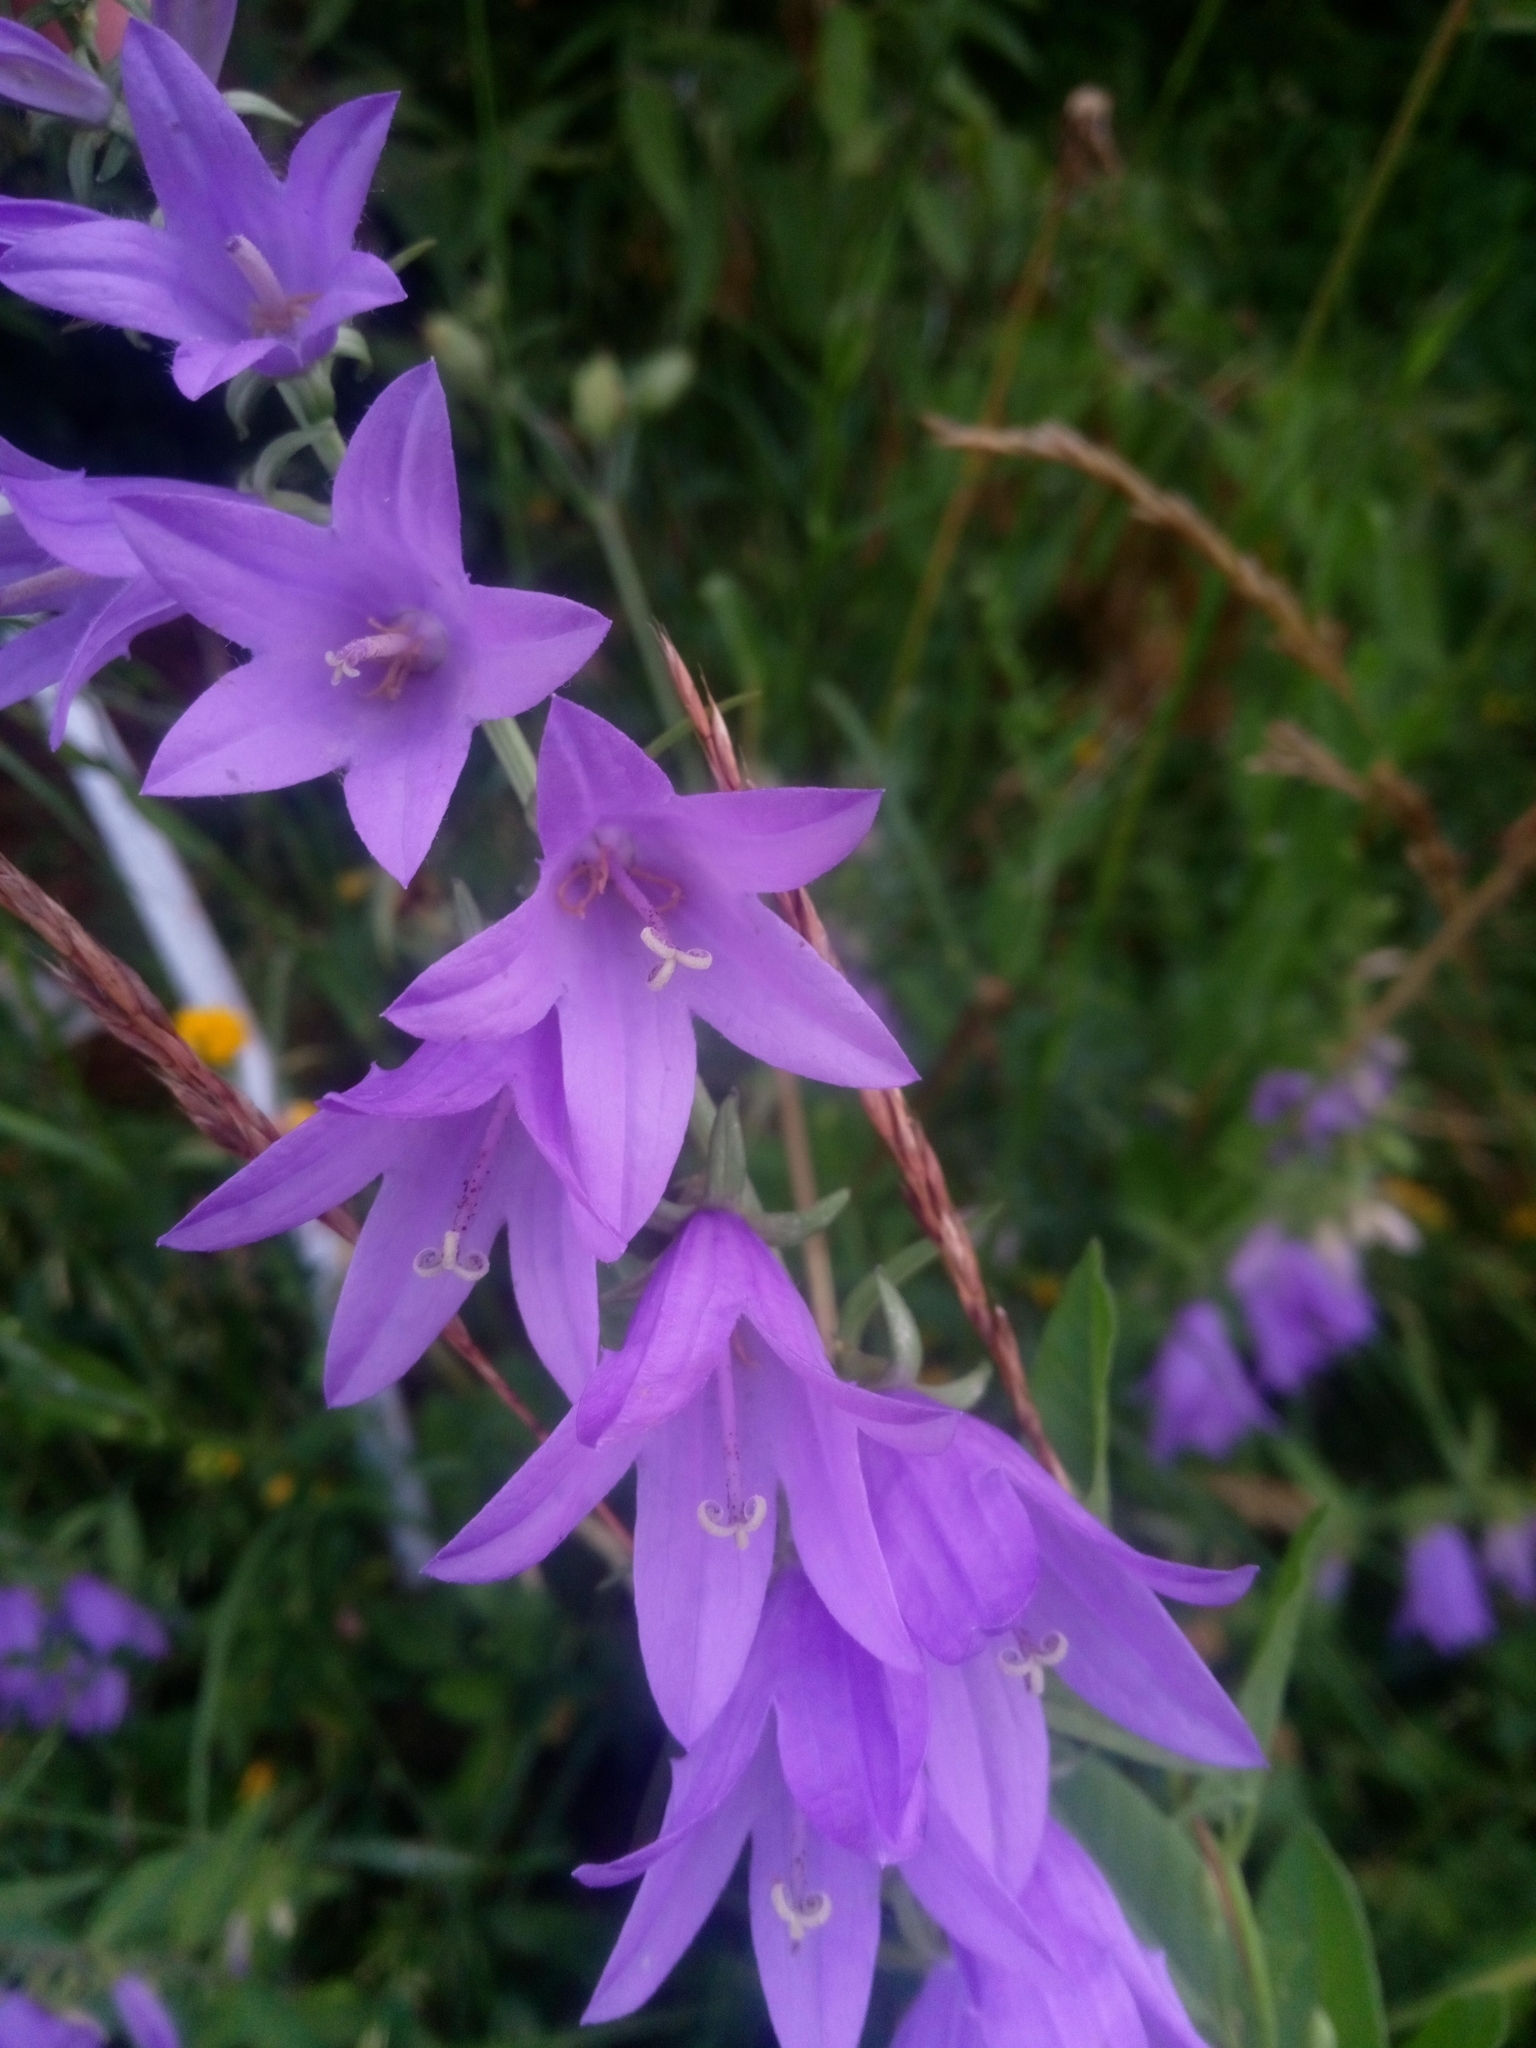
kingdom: Plantae
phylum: Tracheophyta
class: Magnoliopsida
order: Asterales
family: Campanulaceae
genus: Campanula
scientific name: Campanula rapunculoides
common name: Creeping bellflower
